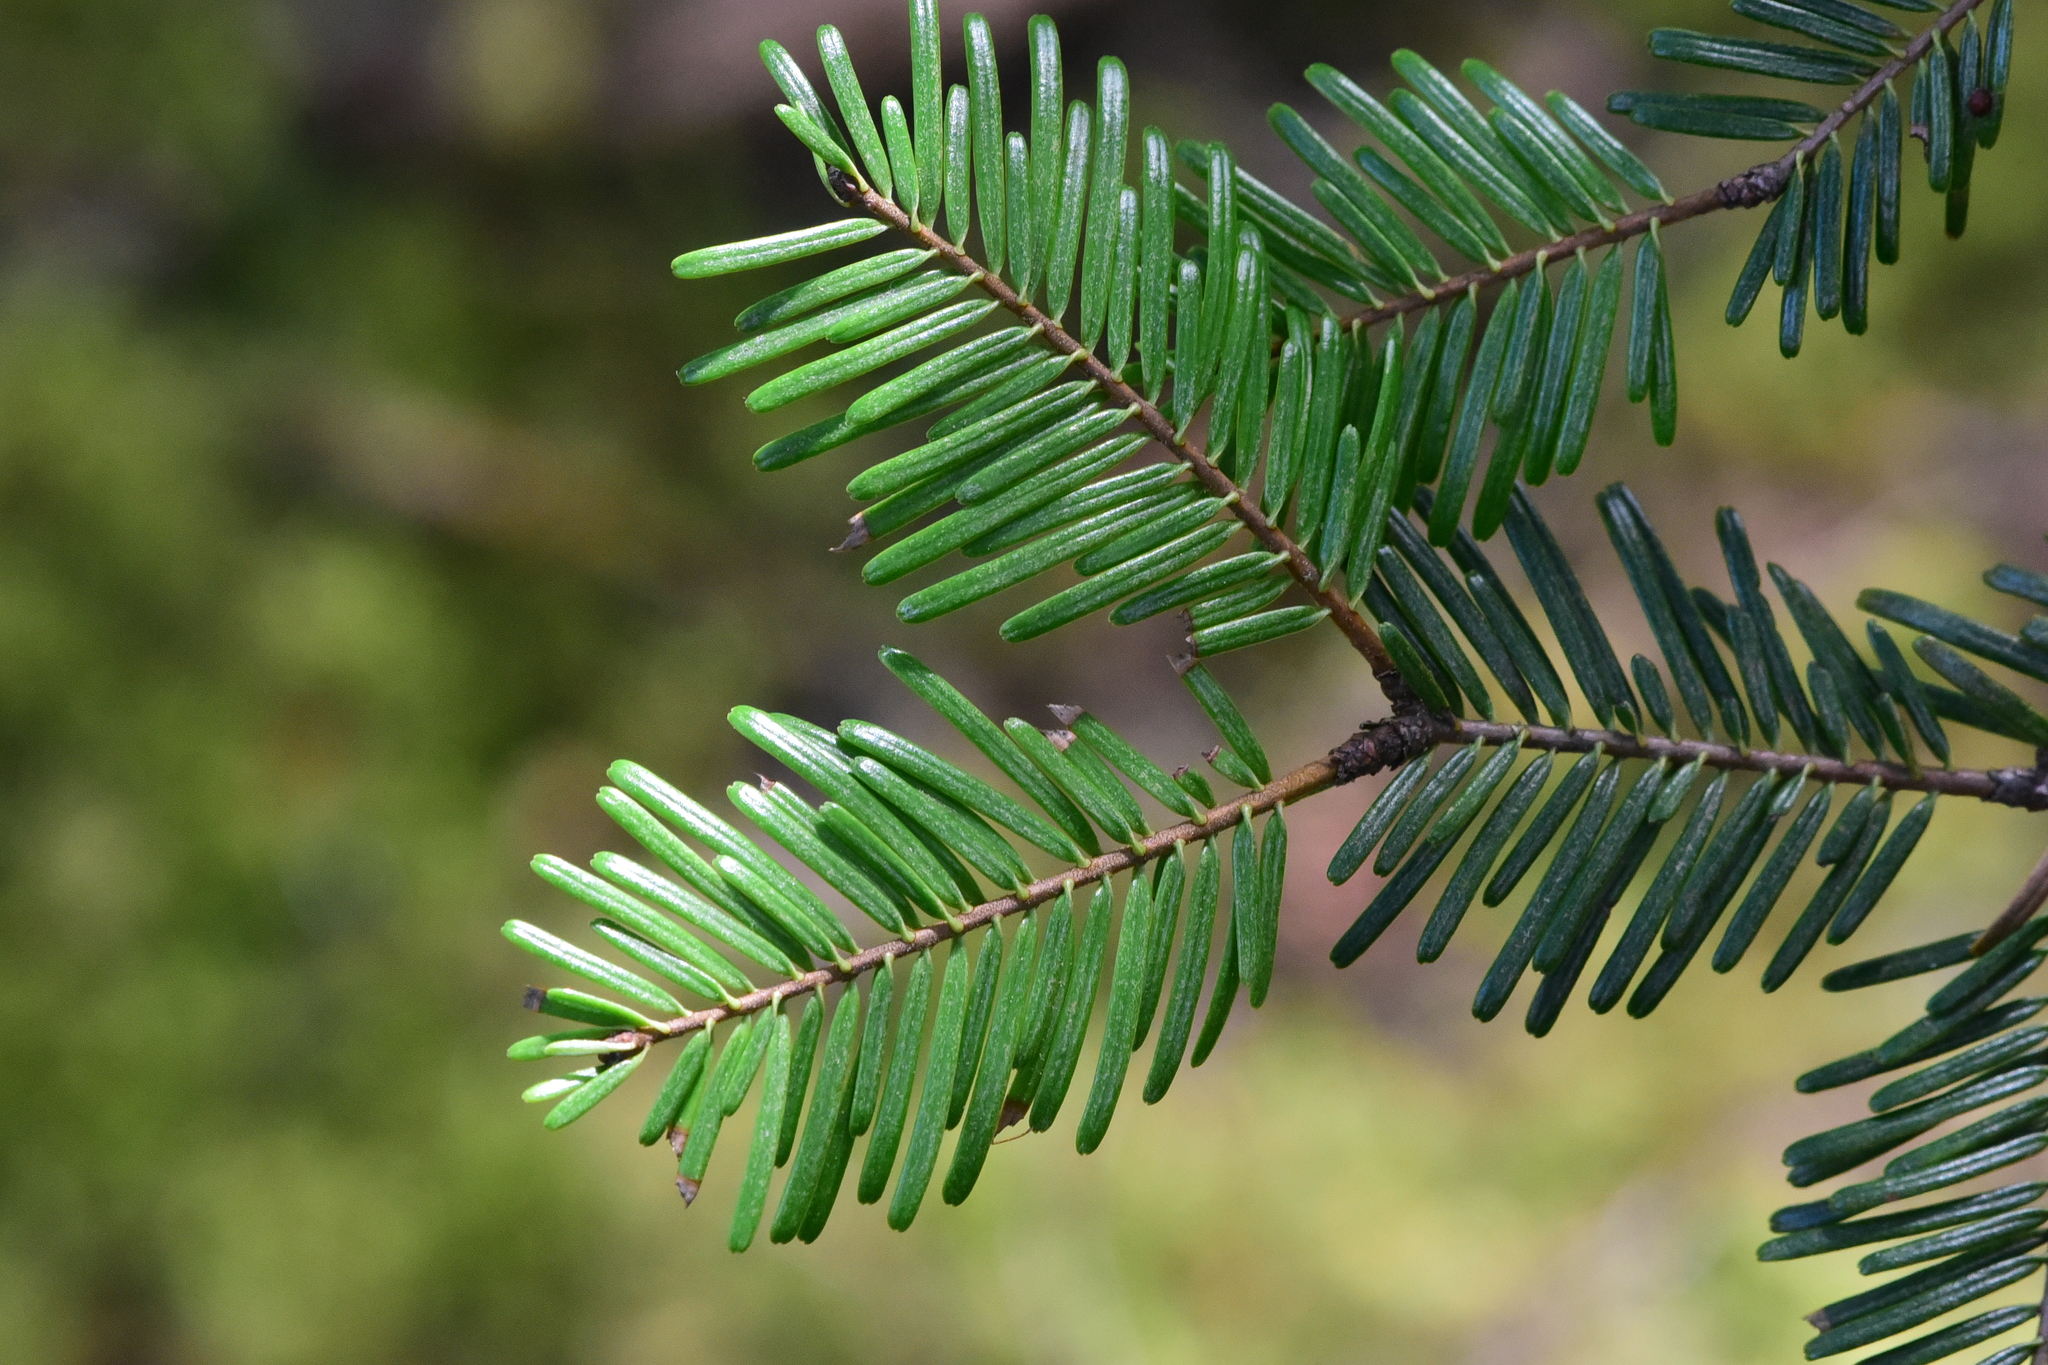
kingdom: Plantae
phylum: Tracheophyta
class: Pinopsida
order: Pinales
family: Pinaceae
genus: Abies
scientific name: Abies grandis
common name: Giant fir
